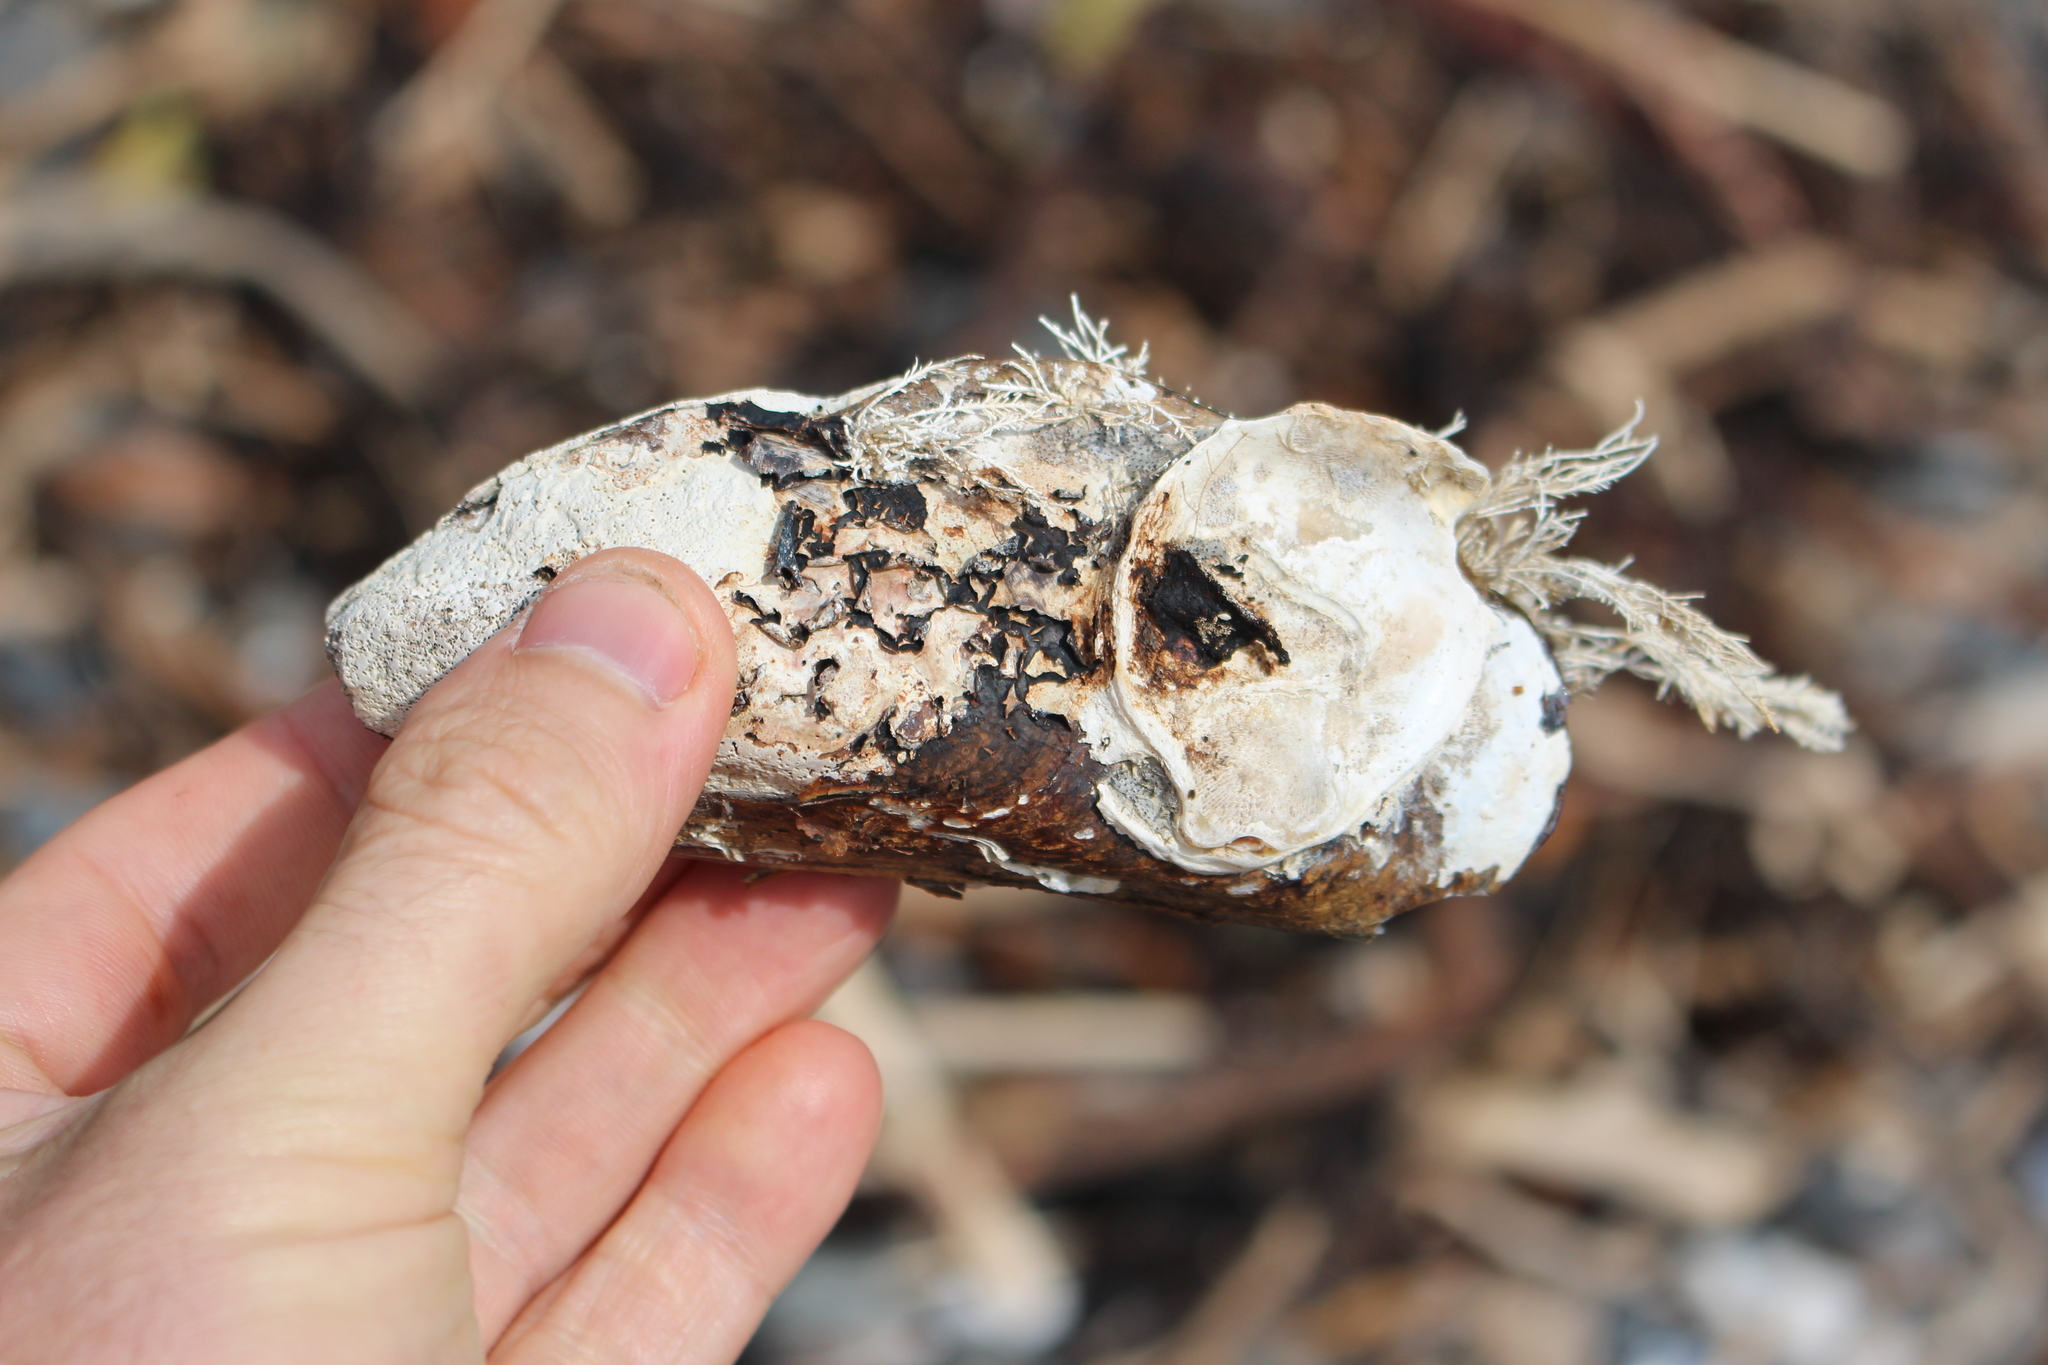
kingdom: Animalia
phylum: Mollusca
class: Bivalvia
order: Mytilida
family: Mytilidae
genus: Perna
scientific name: Perna canaliculus
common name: New zealand greenshelltm
